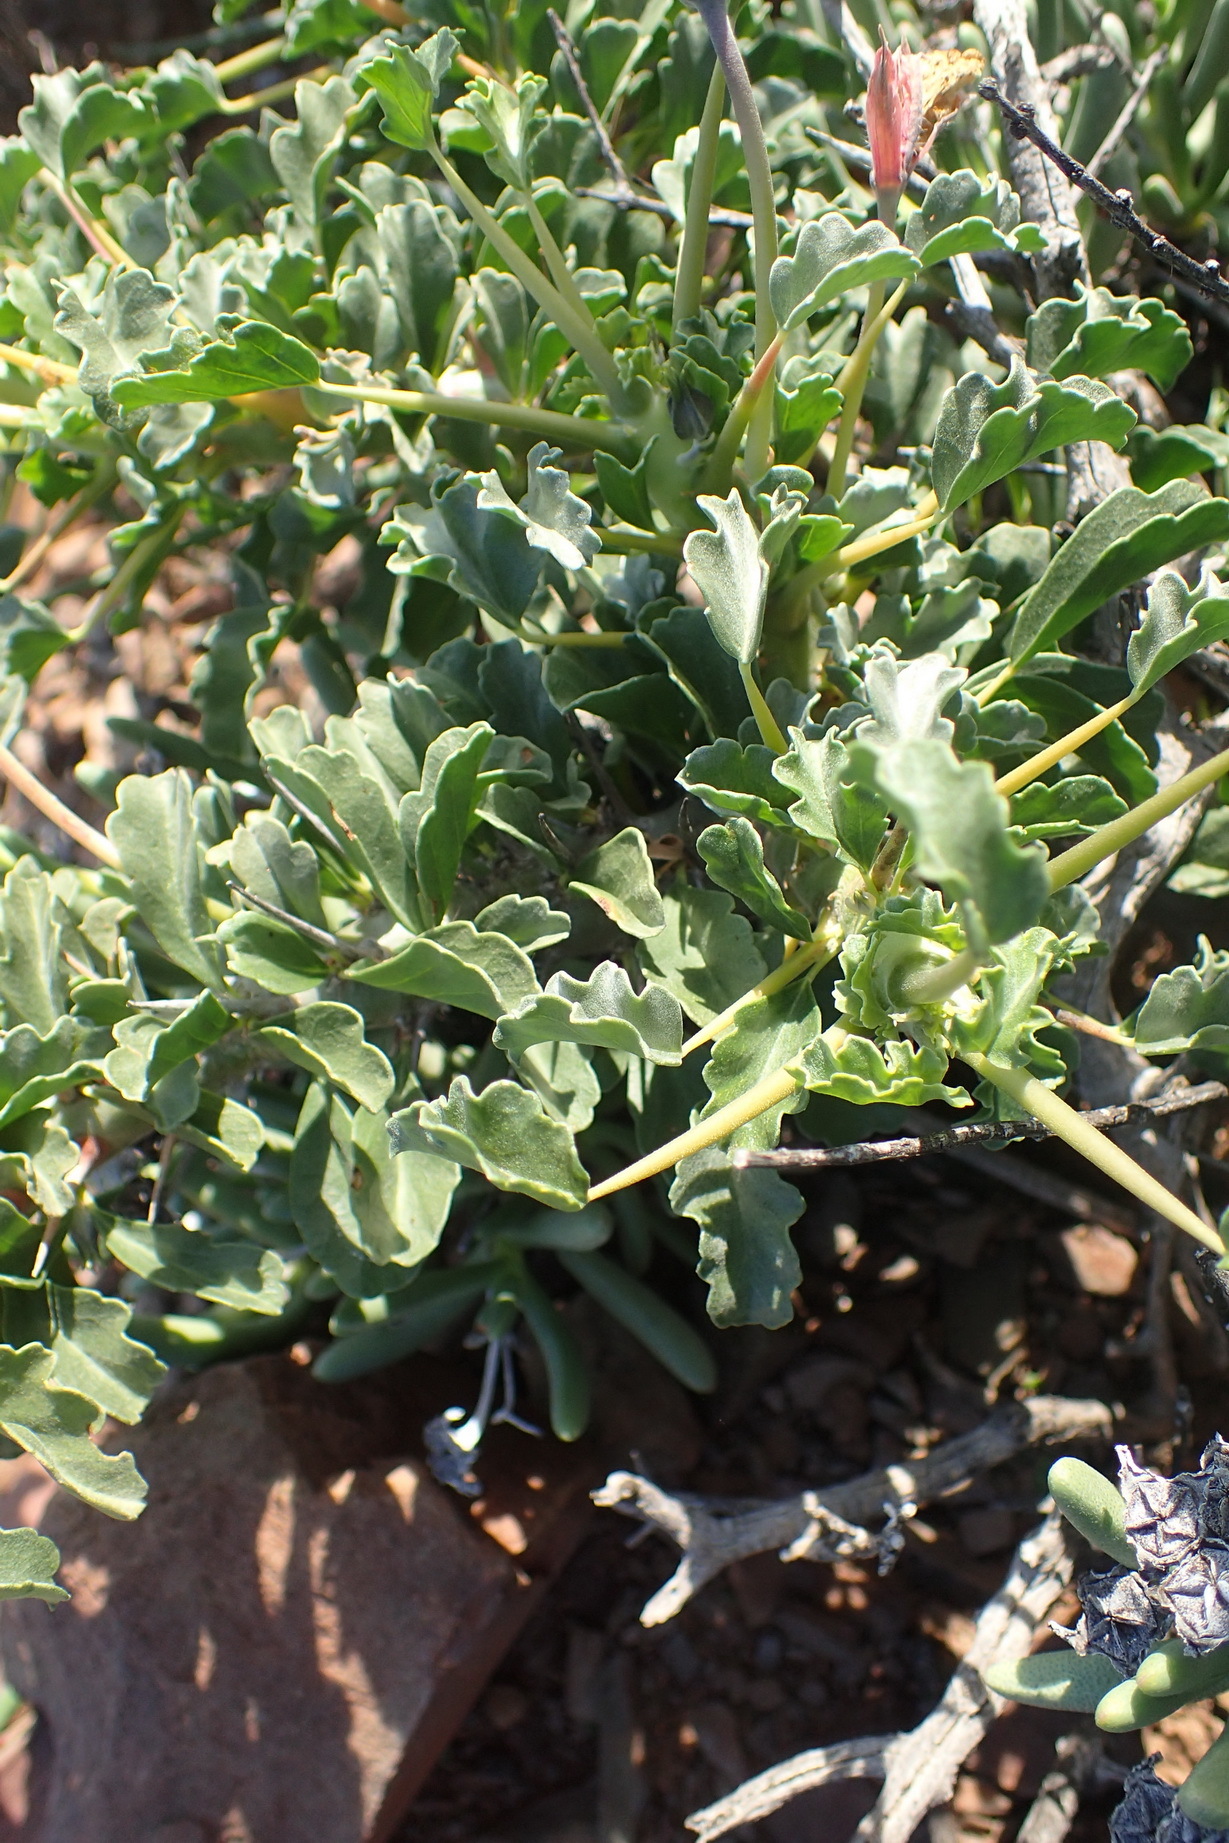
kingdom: Plantae
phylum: Tracheophyta
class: Magnoliopsida
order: Geraniales
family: Geraniaceae
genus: Monsonia
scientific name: Monsonia crassicaulis
